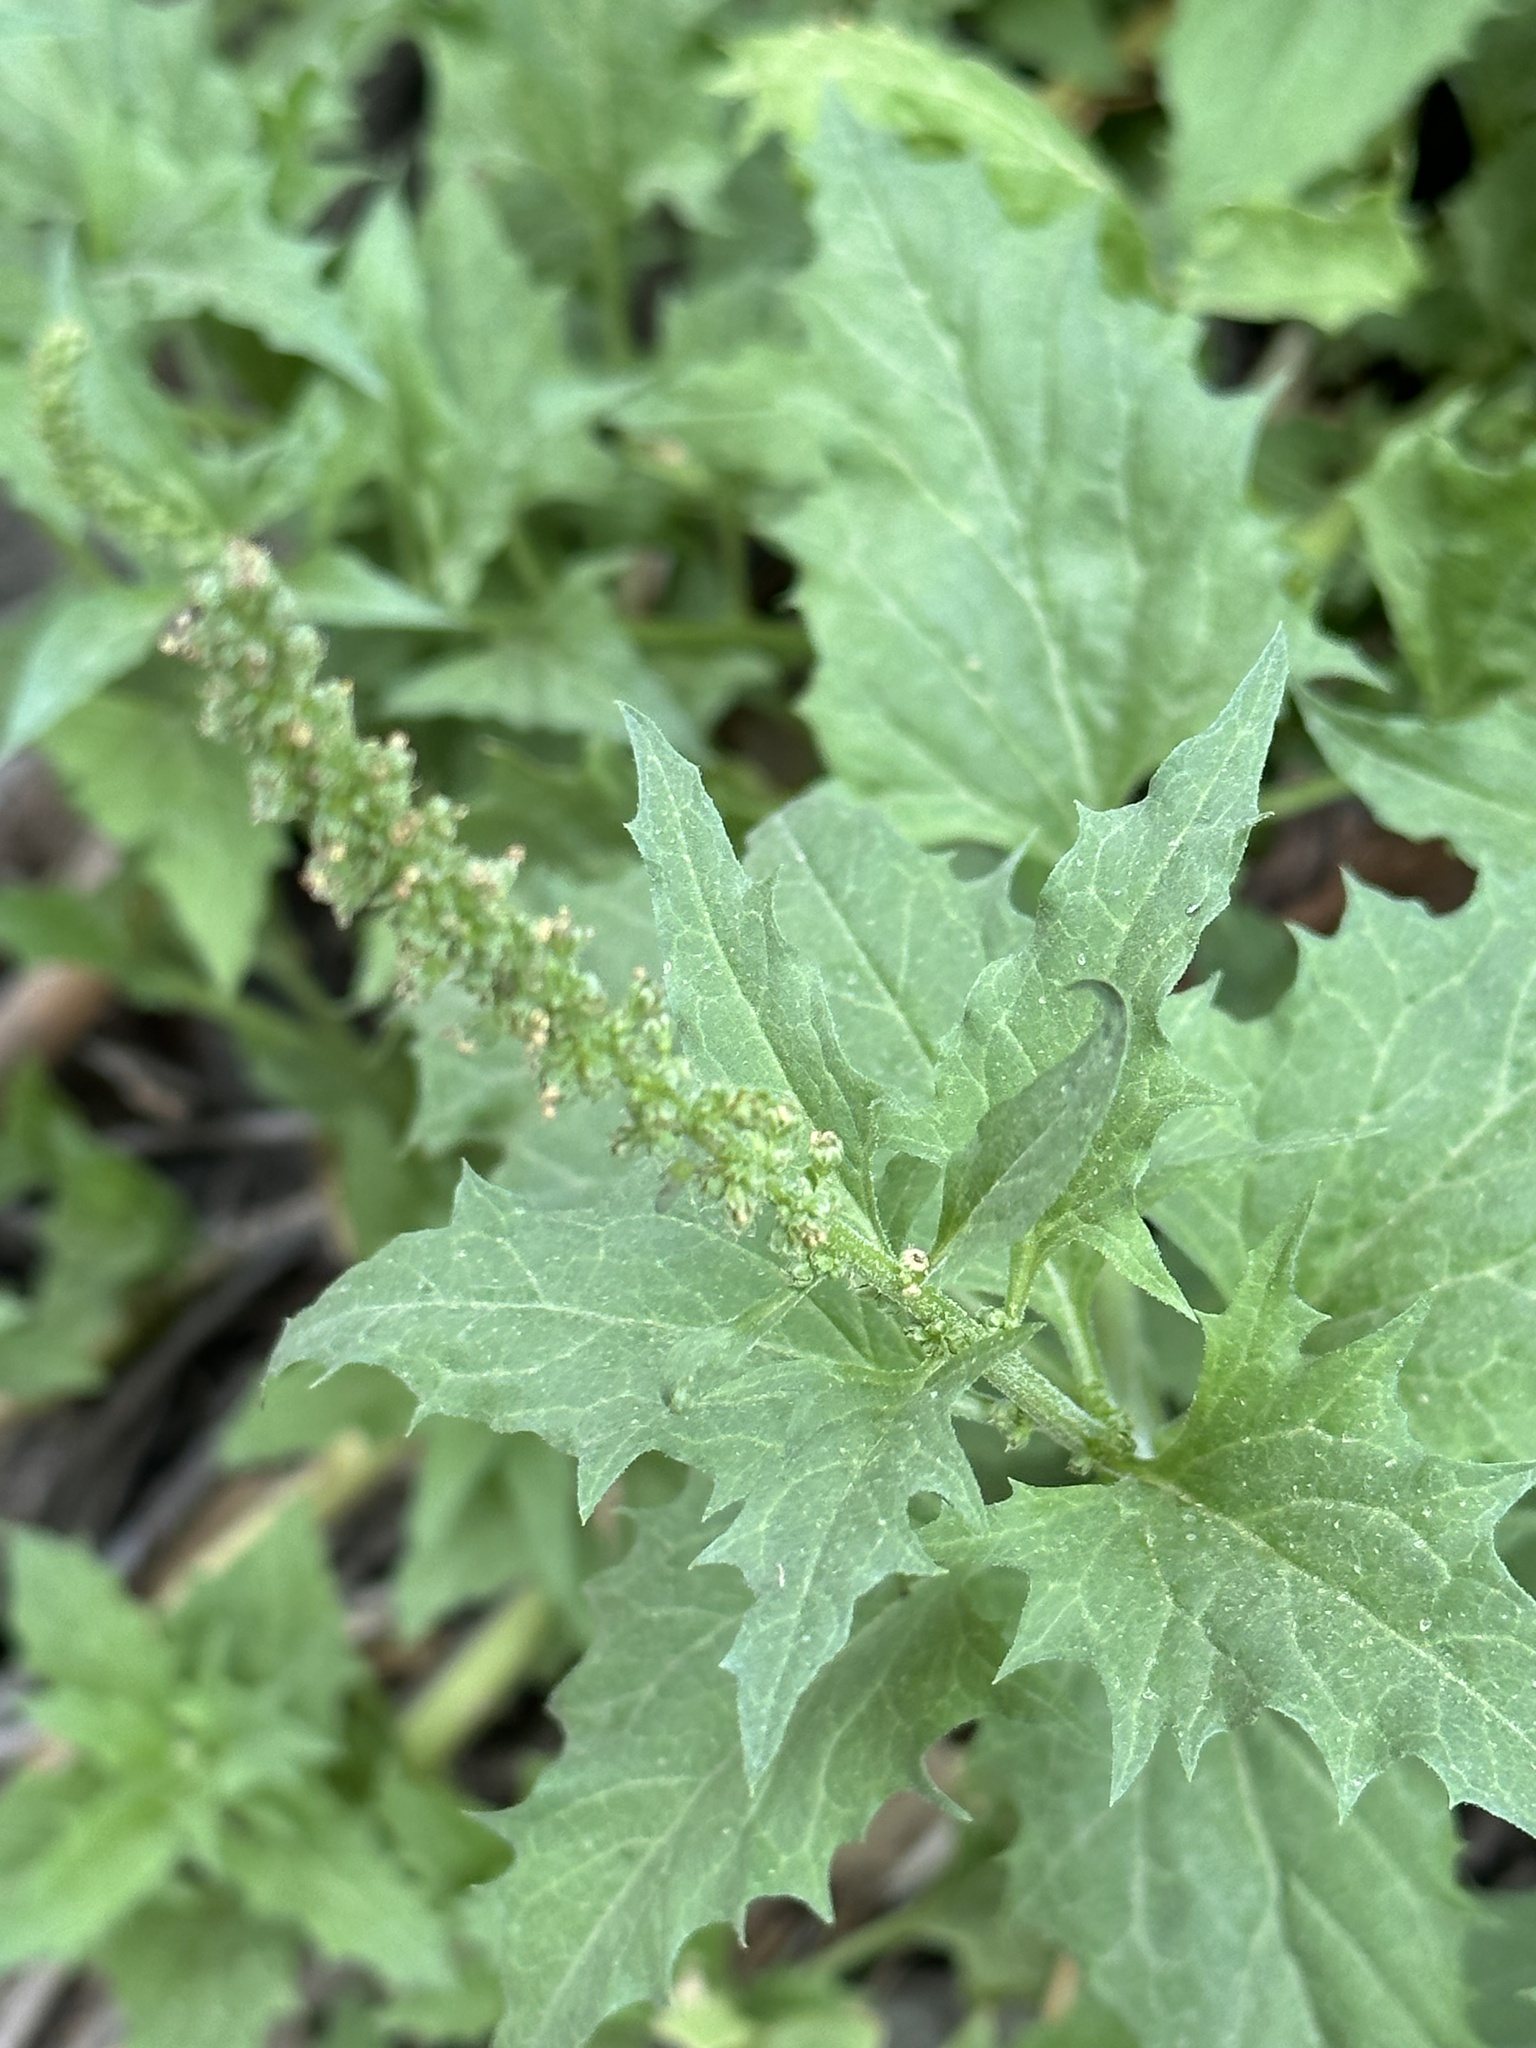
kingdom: Plantae
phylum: Tracheophyta
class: Magnoliopsida
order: Caryophyllales
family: Amaranthaceae
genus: Blitum
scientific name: Blitum californicum
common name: California goosefoot
